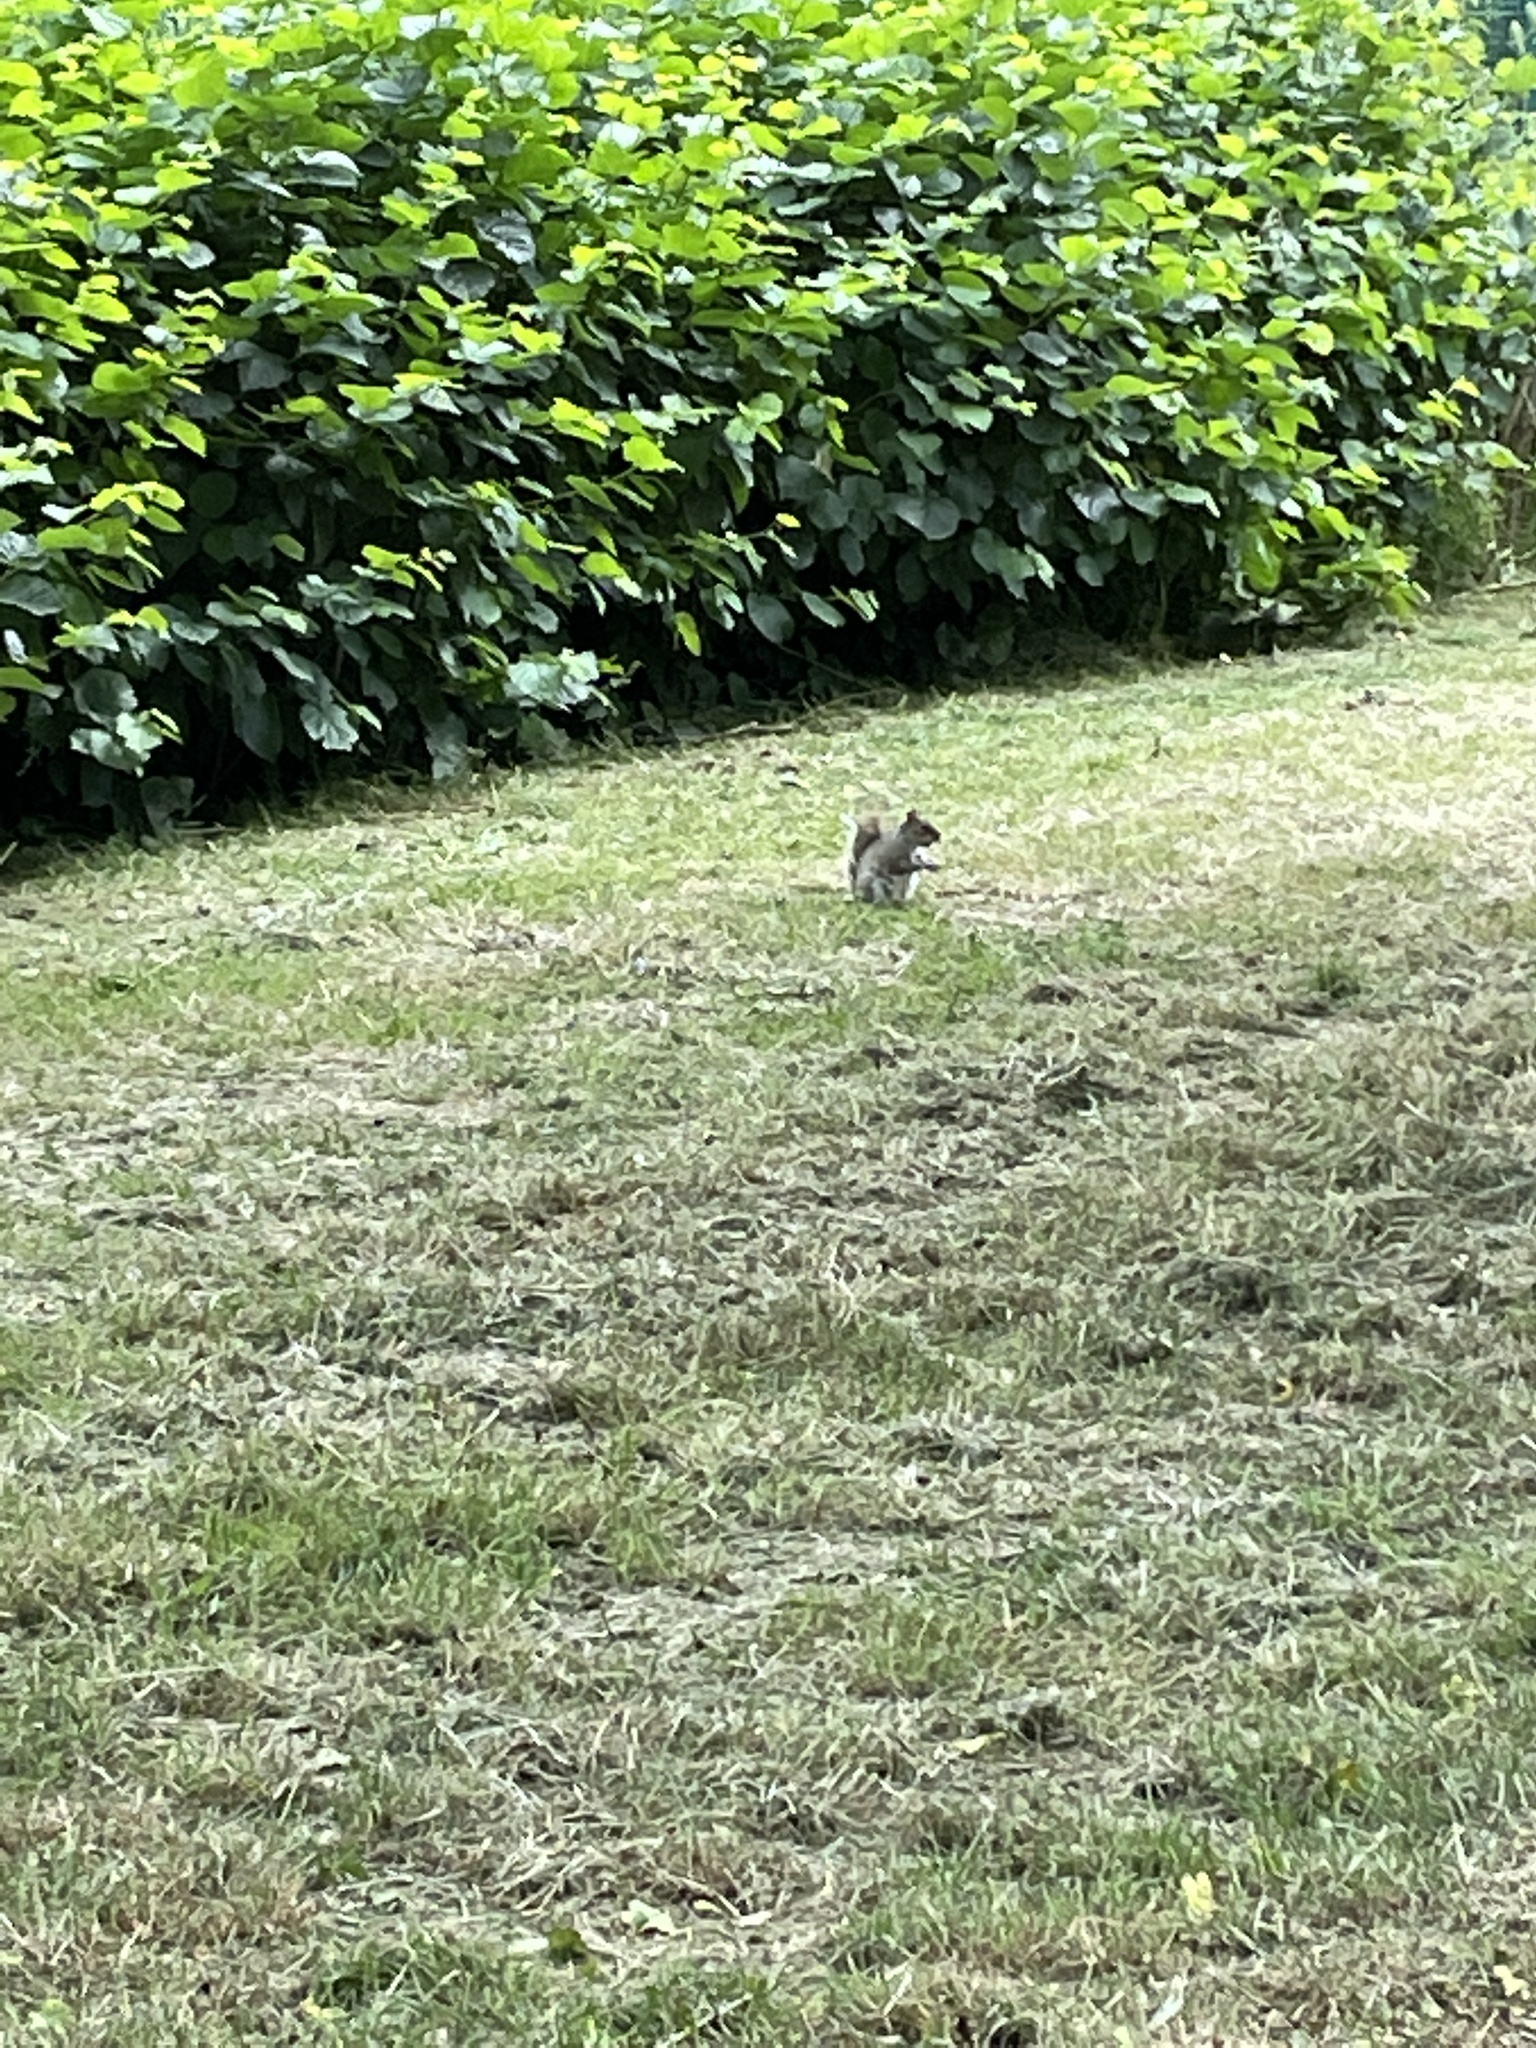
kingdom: Animalia
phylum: Chordata
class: Mammalia
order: Rodentia
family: Sciuridae
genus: Sciurus
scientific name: Sciurus carolinensis
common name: Eastern gray squirrel
